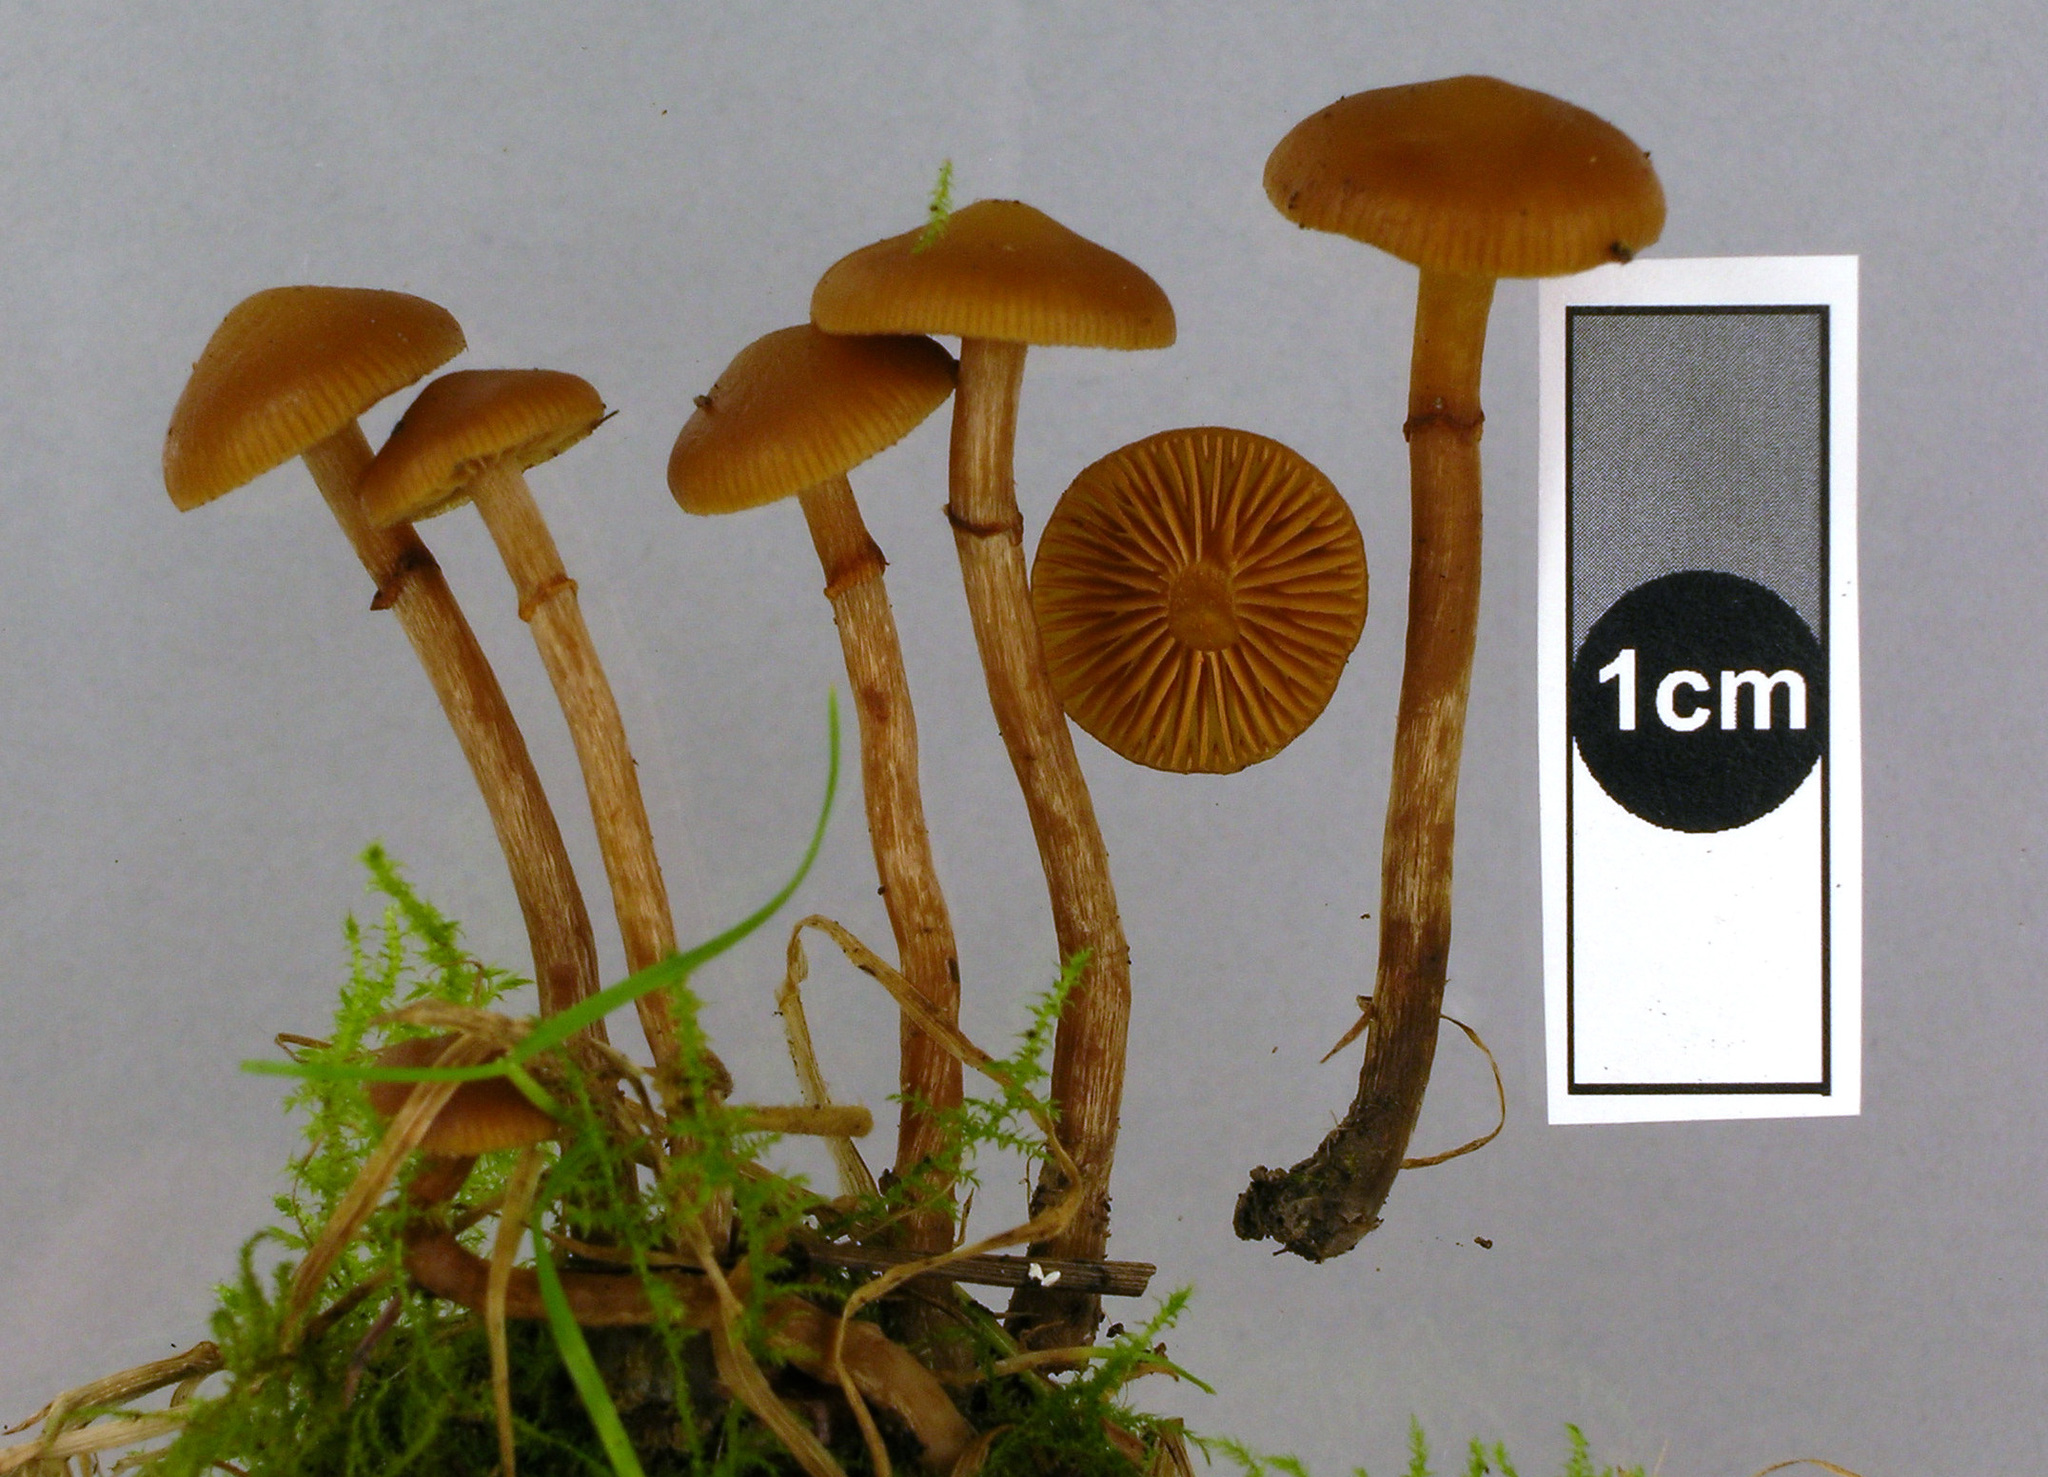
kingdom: Fungi
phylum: Basidiomycota
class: Agaricomycetes
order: Agaricales
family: Hymenogastraceae
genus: Galerina
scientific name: Galerina
